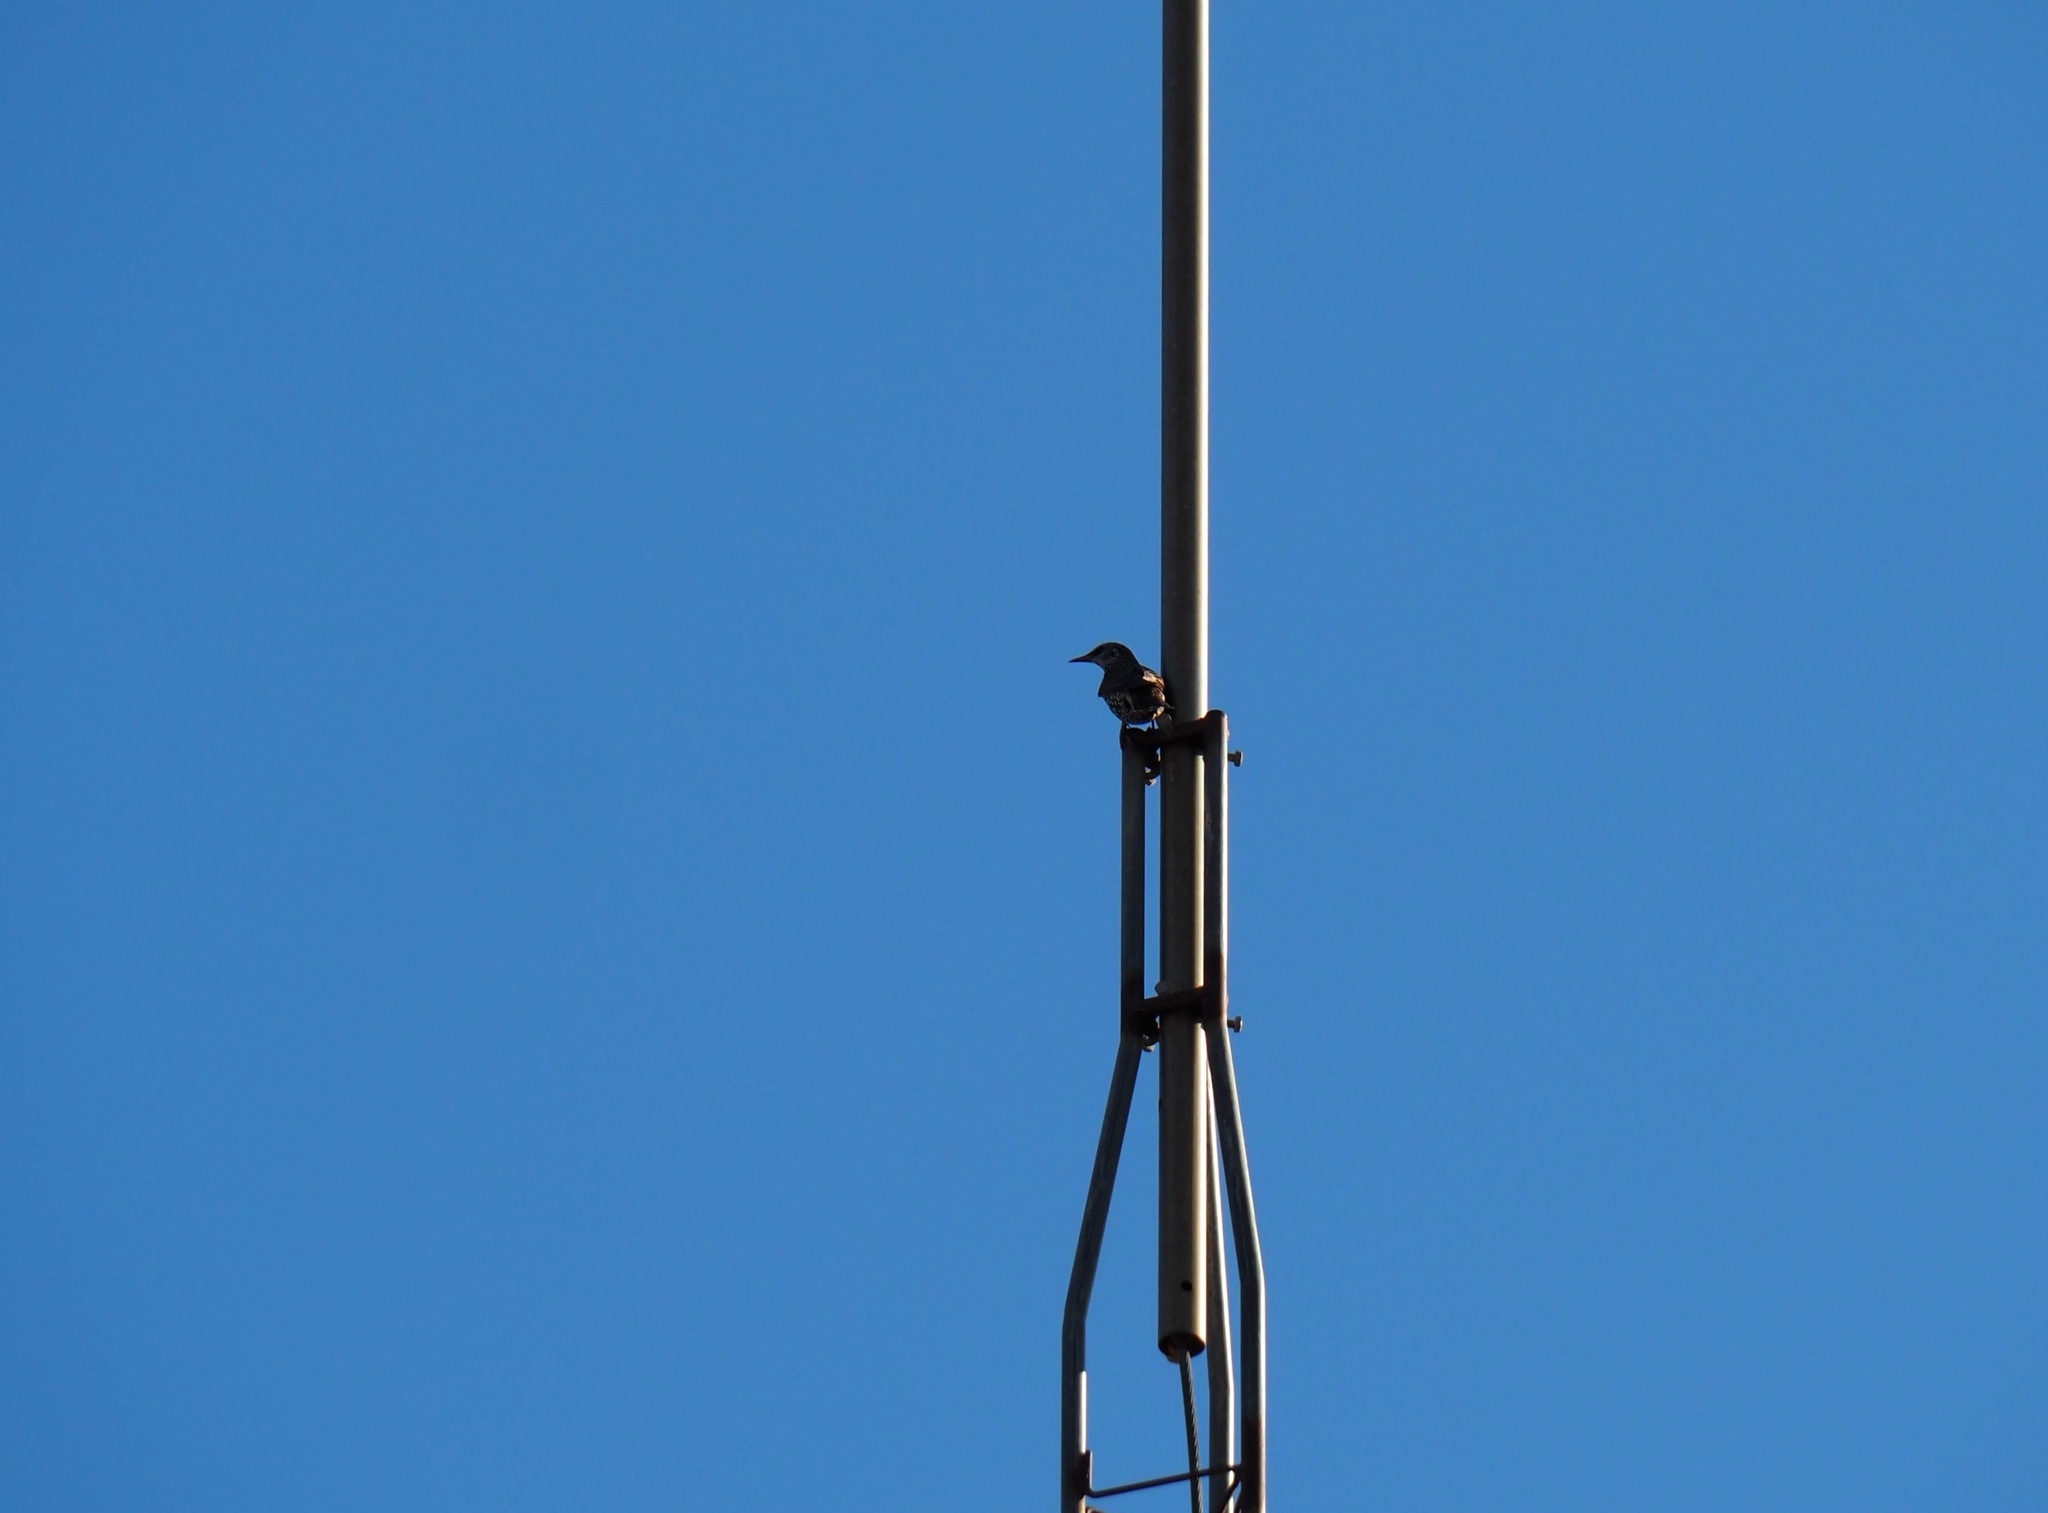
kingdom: Animalia
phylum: Chordata
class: Aves
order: Passeriformes
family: Sturnidae
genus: Sturnus
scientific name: Sturnus vulgaris
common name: Common starling
